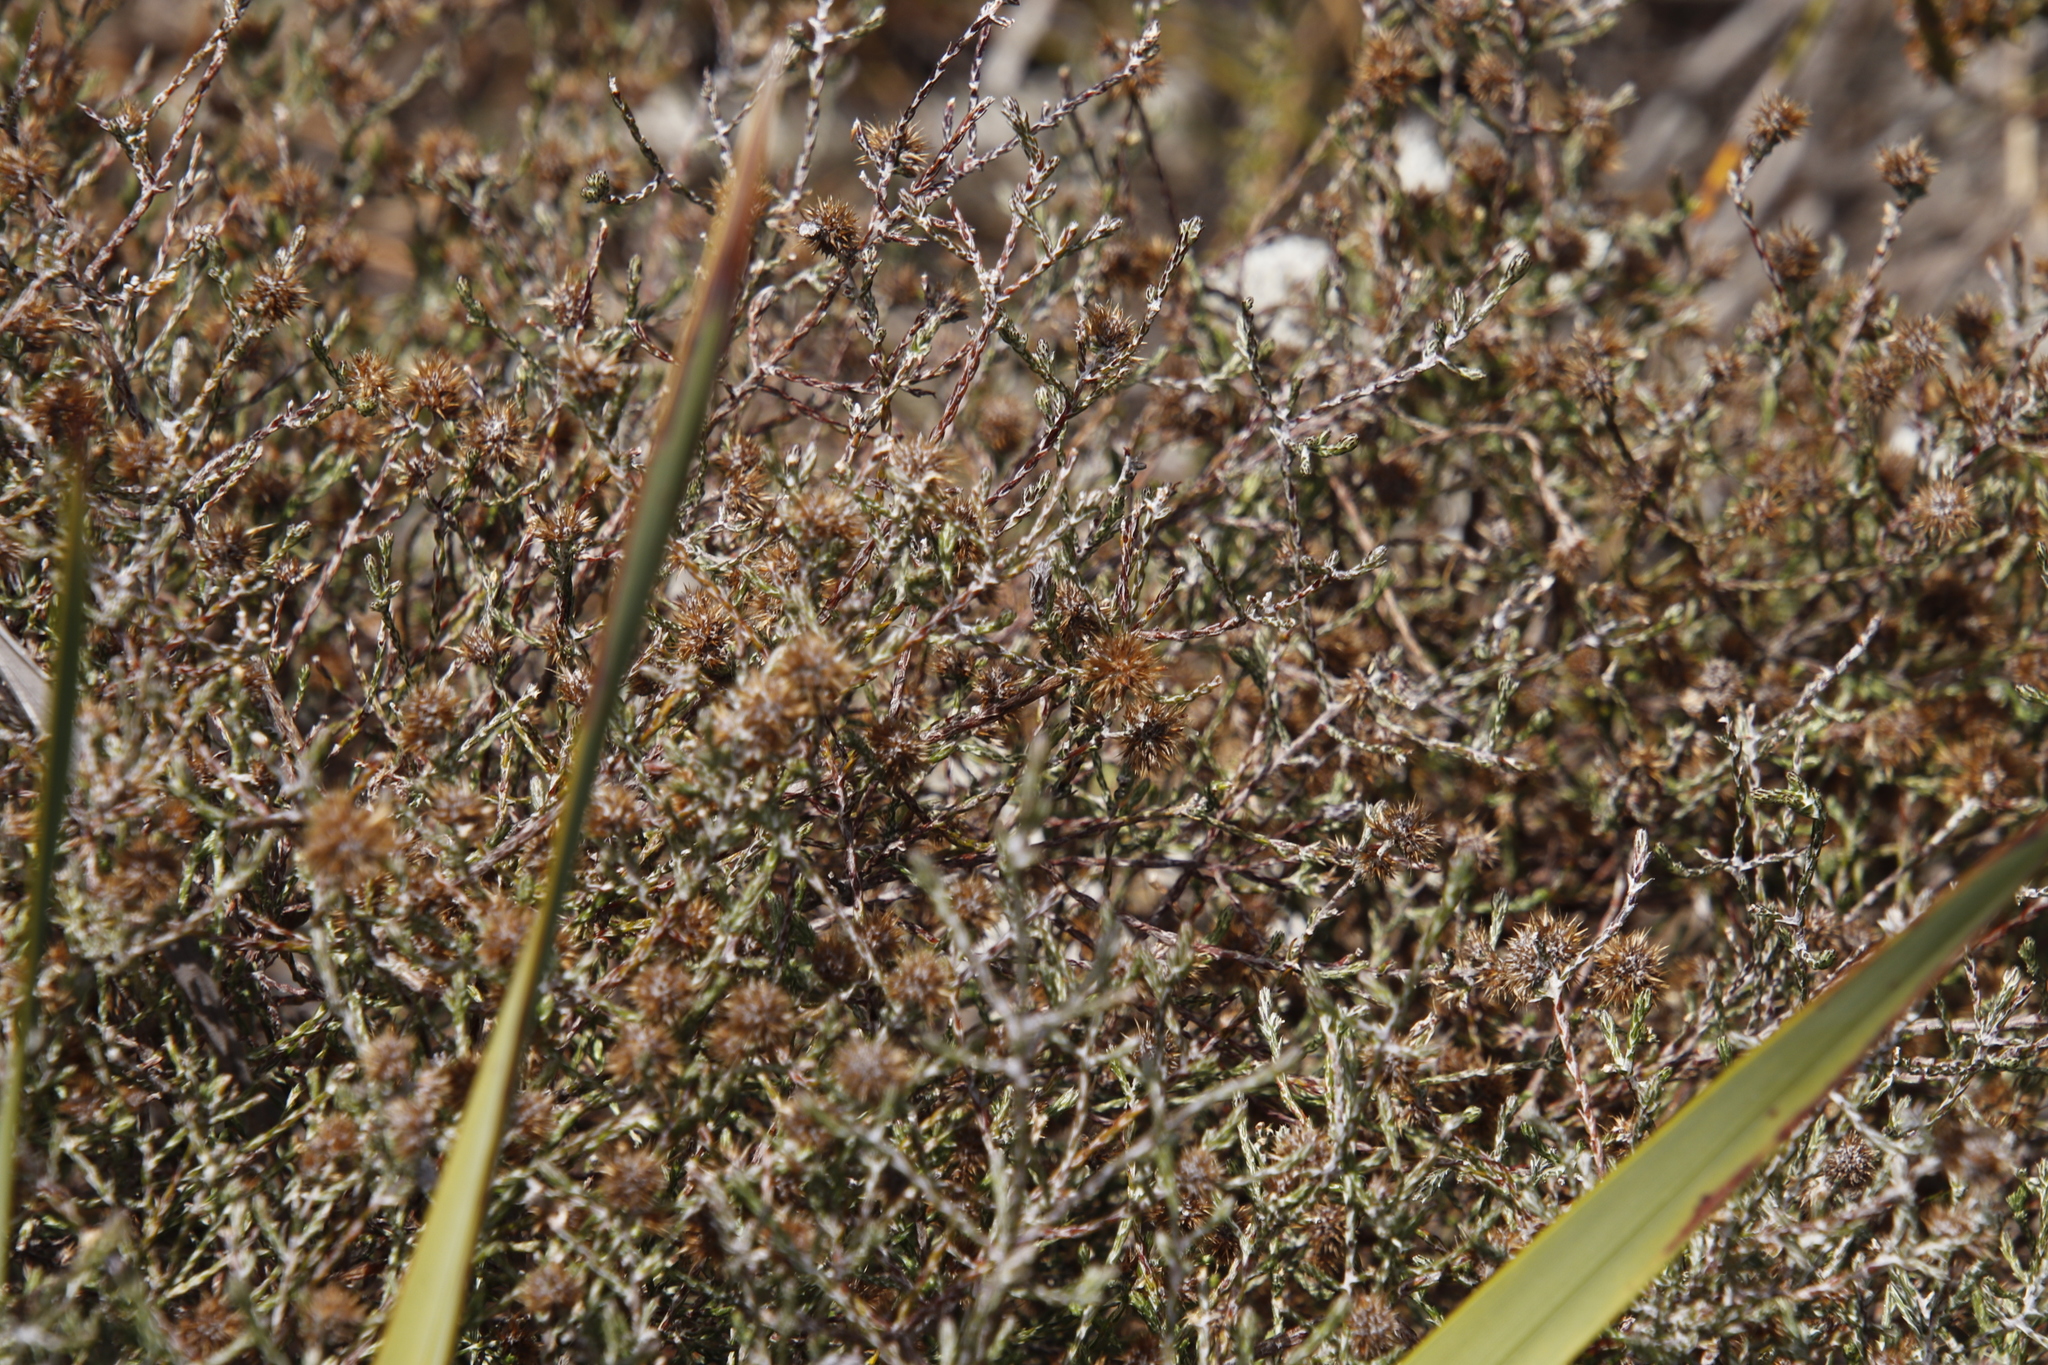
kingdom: Plantae
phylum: Tracheophyta
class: Magnoliopsida
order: Asterales
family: Asteraceae
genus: Stoebe
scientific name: Stoebe schultzii
